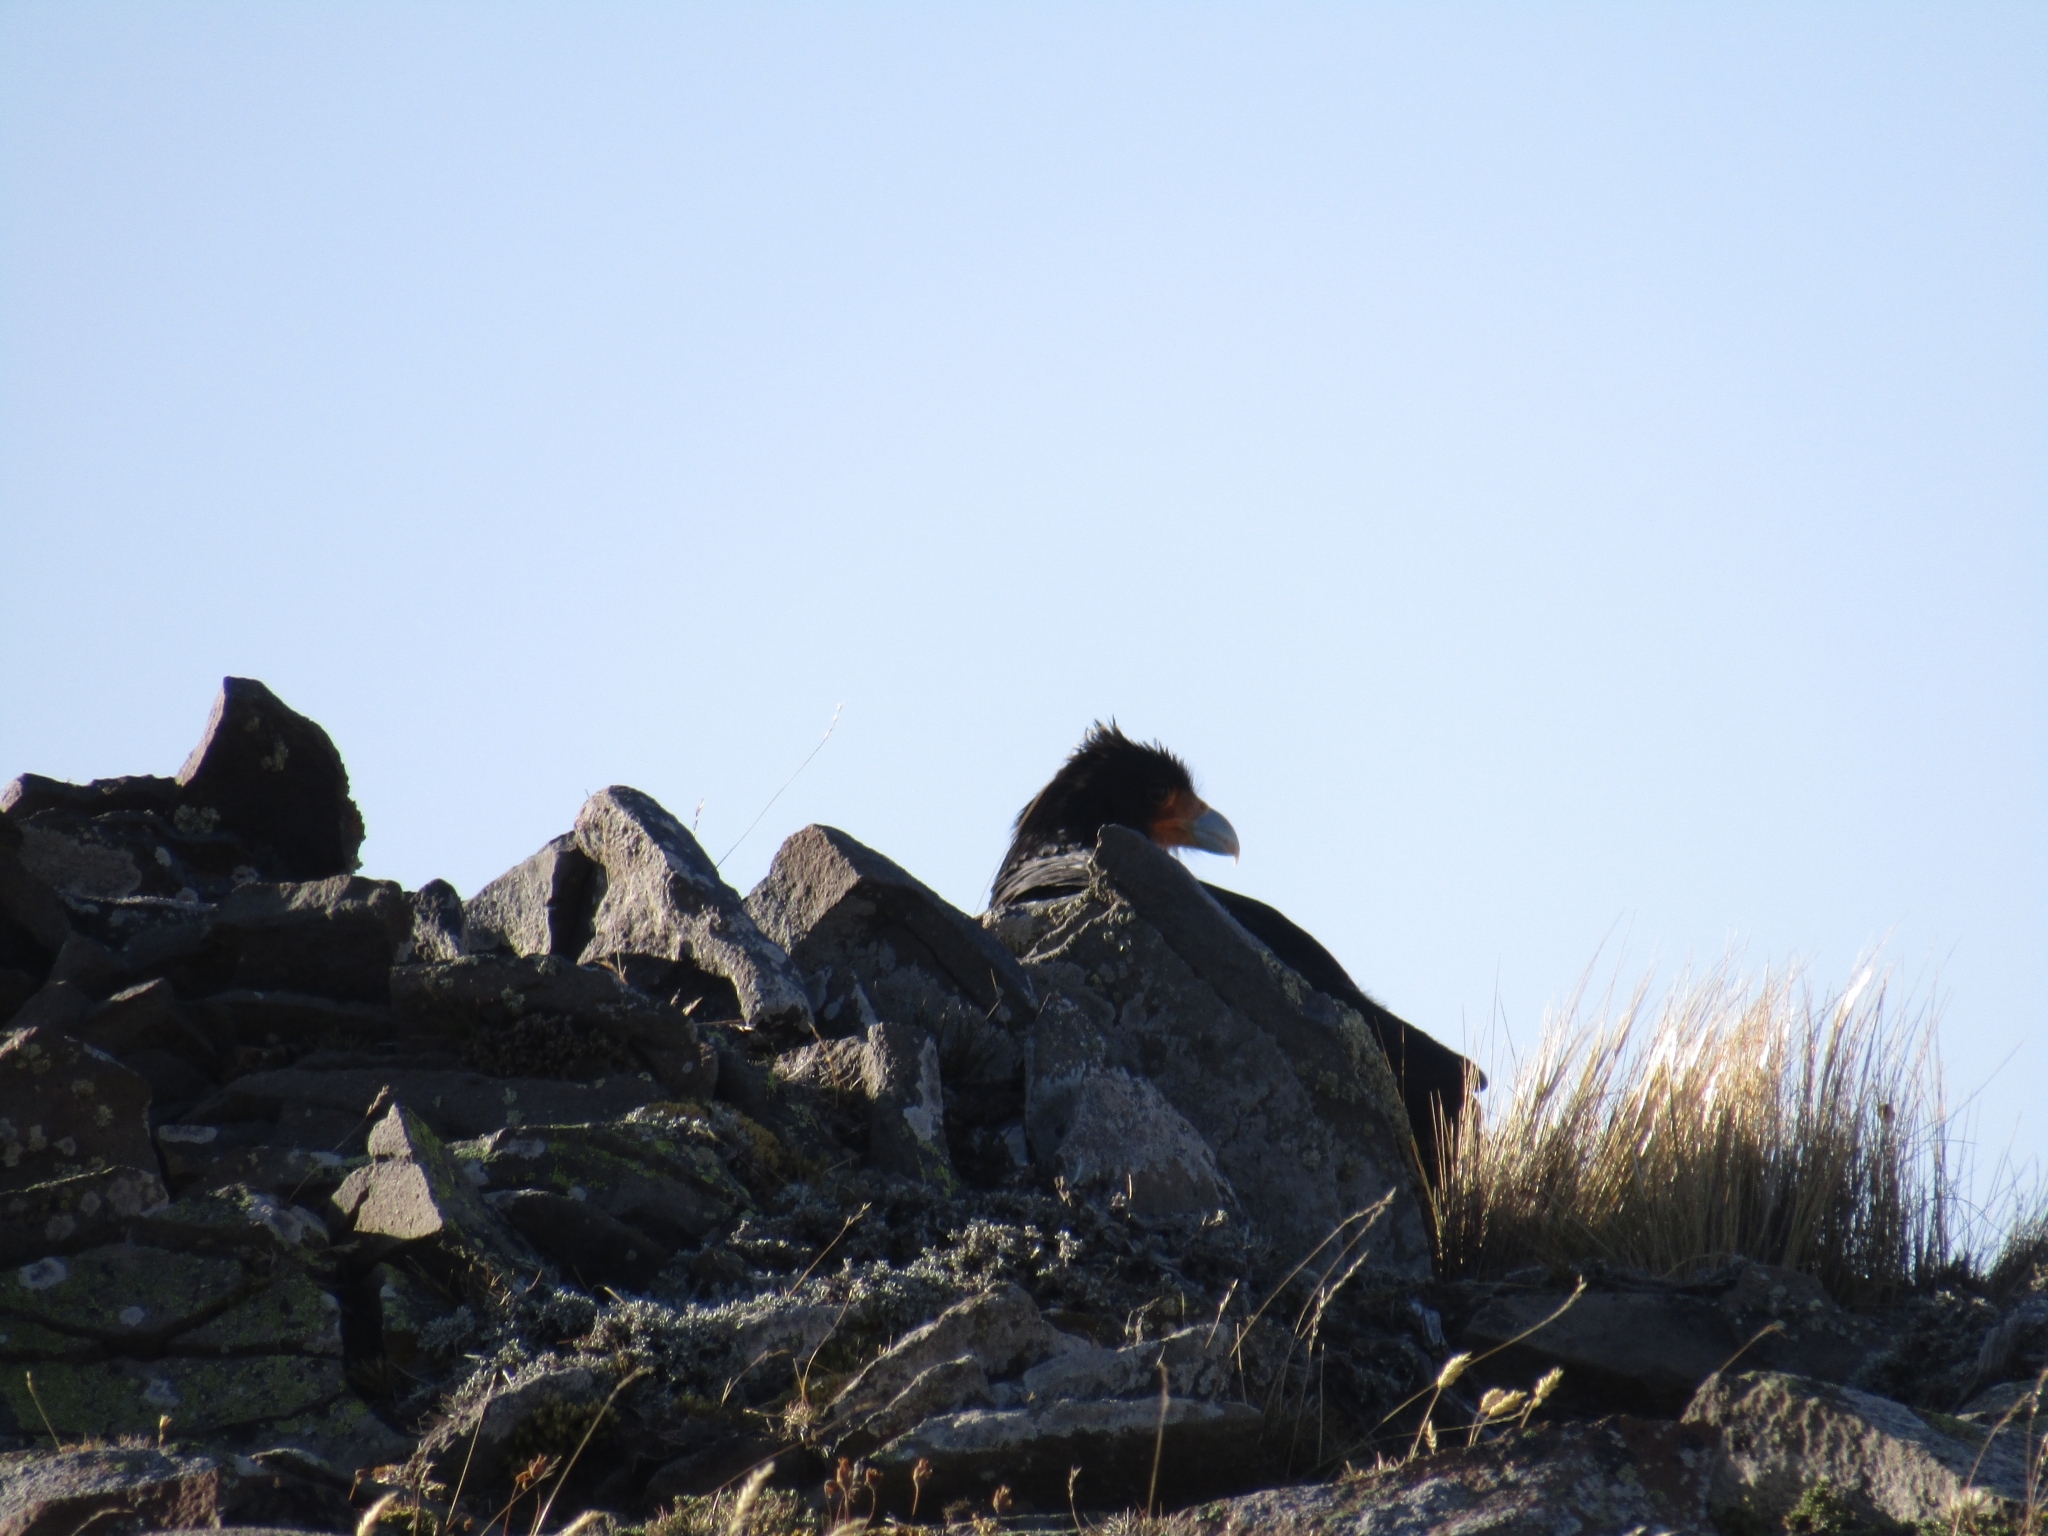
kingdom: Animalia
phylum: Chordata
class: Aves
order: Falconiformes
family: Falconidae
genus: Daptrius
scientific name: Daptrius
